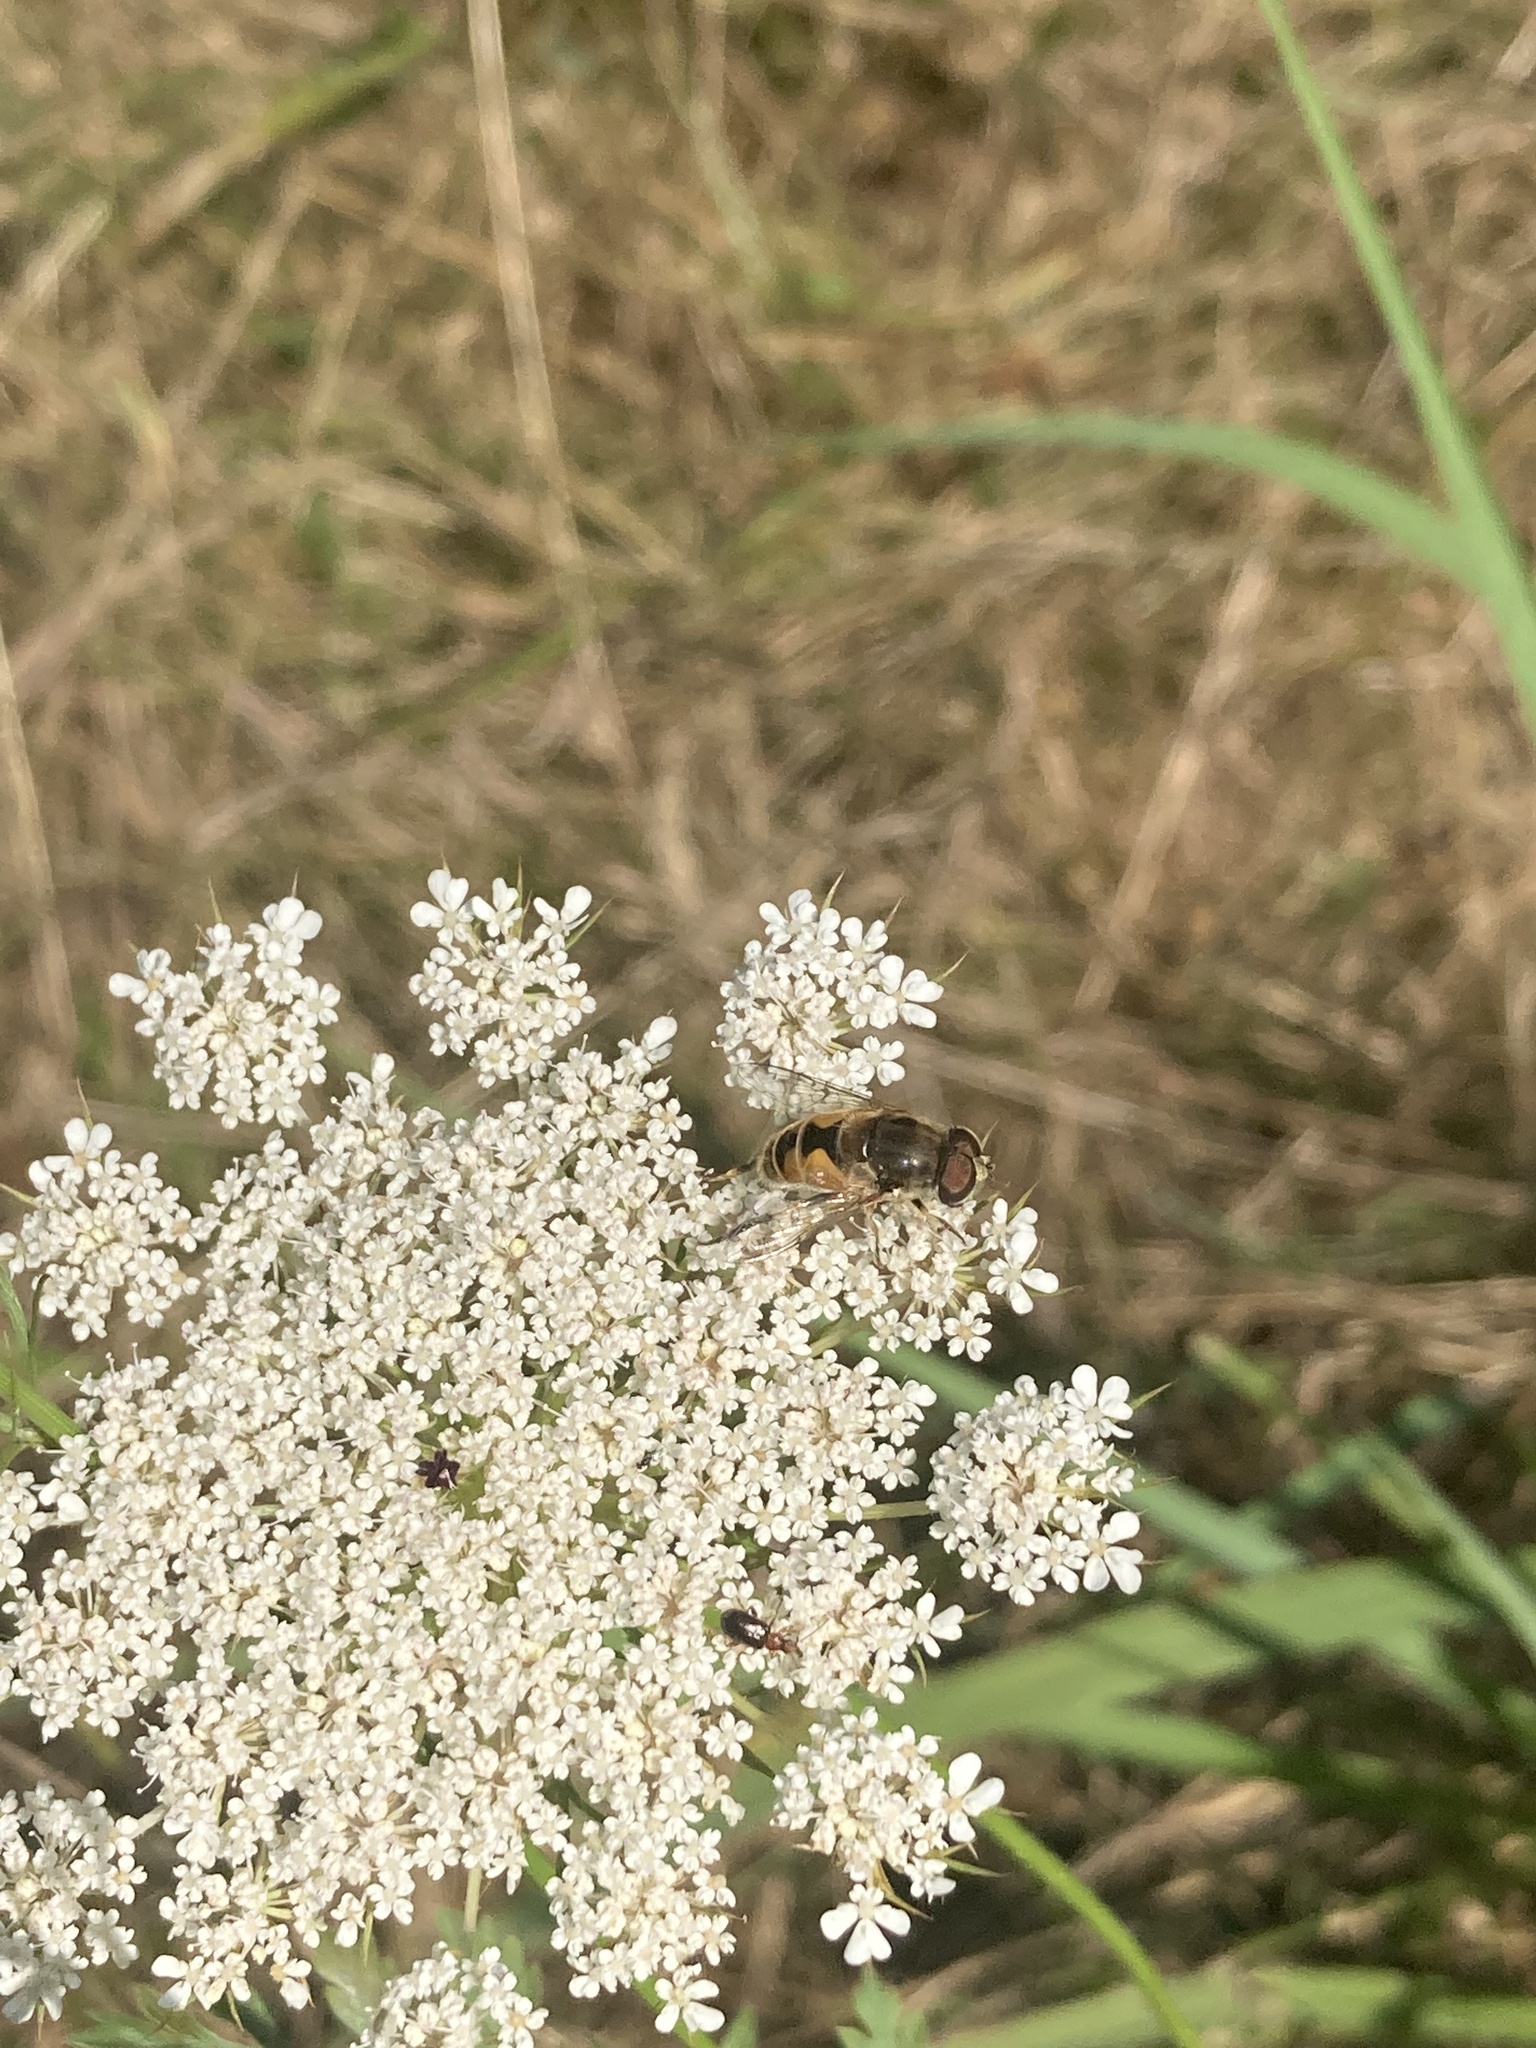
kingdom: Animalia
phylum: Arthropoda
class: Insecta
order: Diptera
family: Syrphidae
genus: Eristalis
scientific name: Eristalis arbustorum
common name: Hover fly
